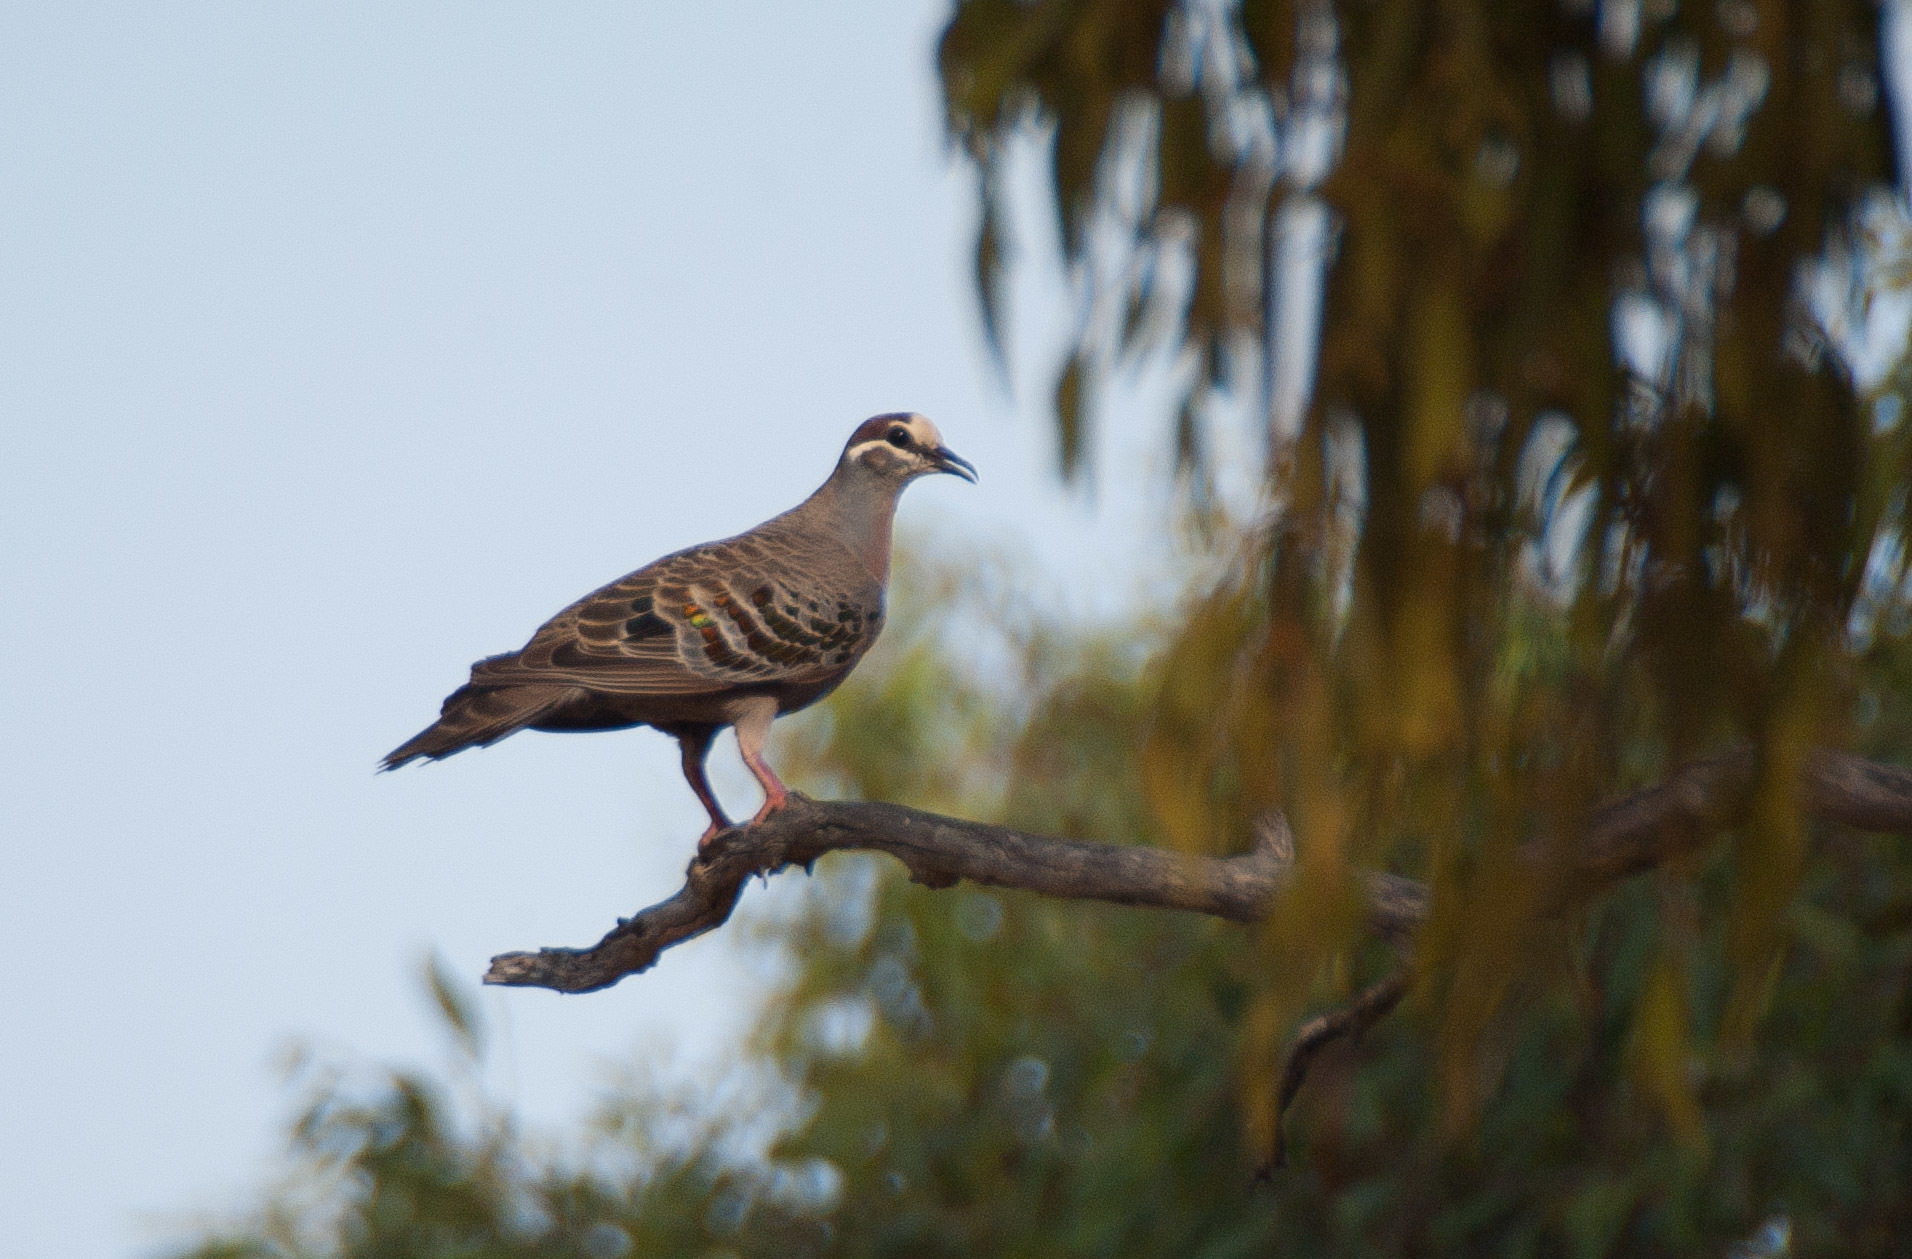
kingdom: Animalia
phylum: Chordata
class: Aves
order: Columbiformes
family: Columbidae
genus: Phaps
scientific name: Phaps chalcoptera
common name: Common bronzewing
